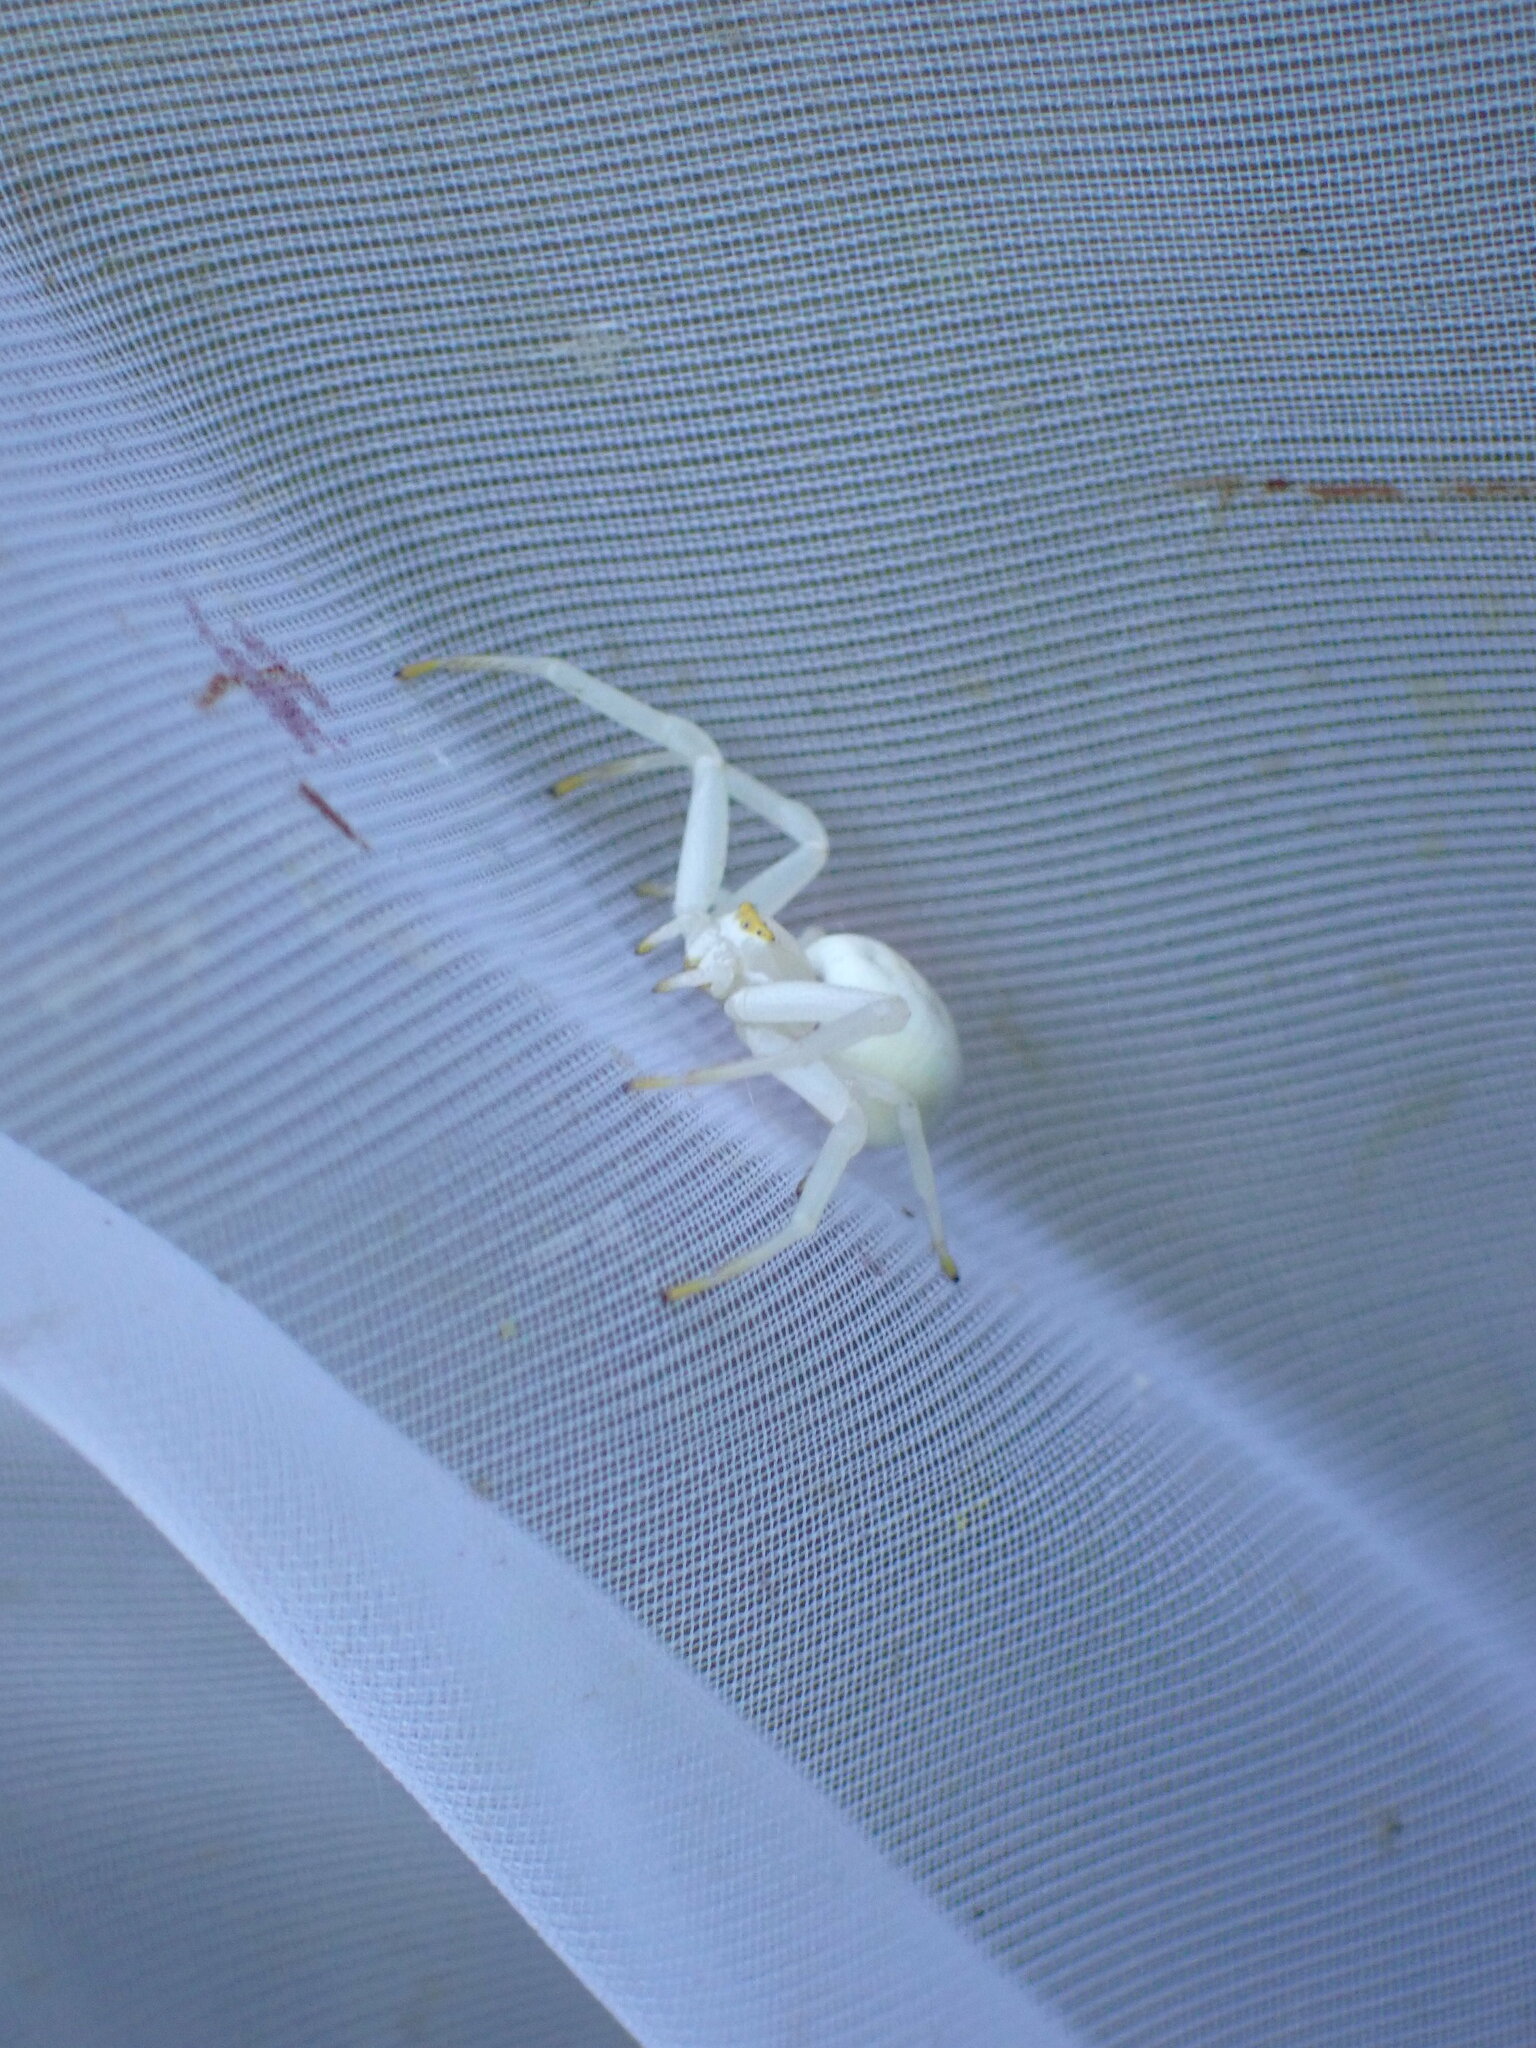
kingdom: Animalia
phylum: Arthropoda
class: Arachnida
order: Araneae
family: Thomisidae
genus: Misumena
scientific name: Misumena vatia
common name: Goldenrod crab spider
